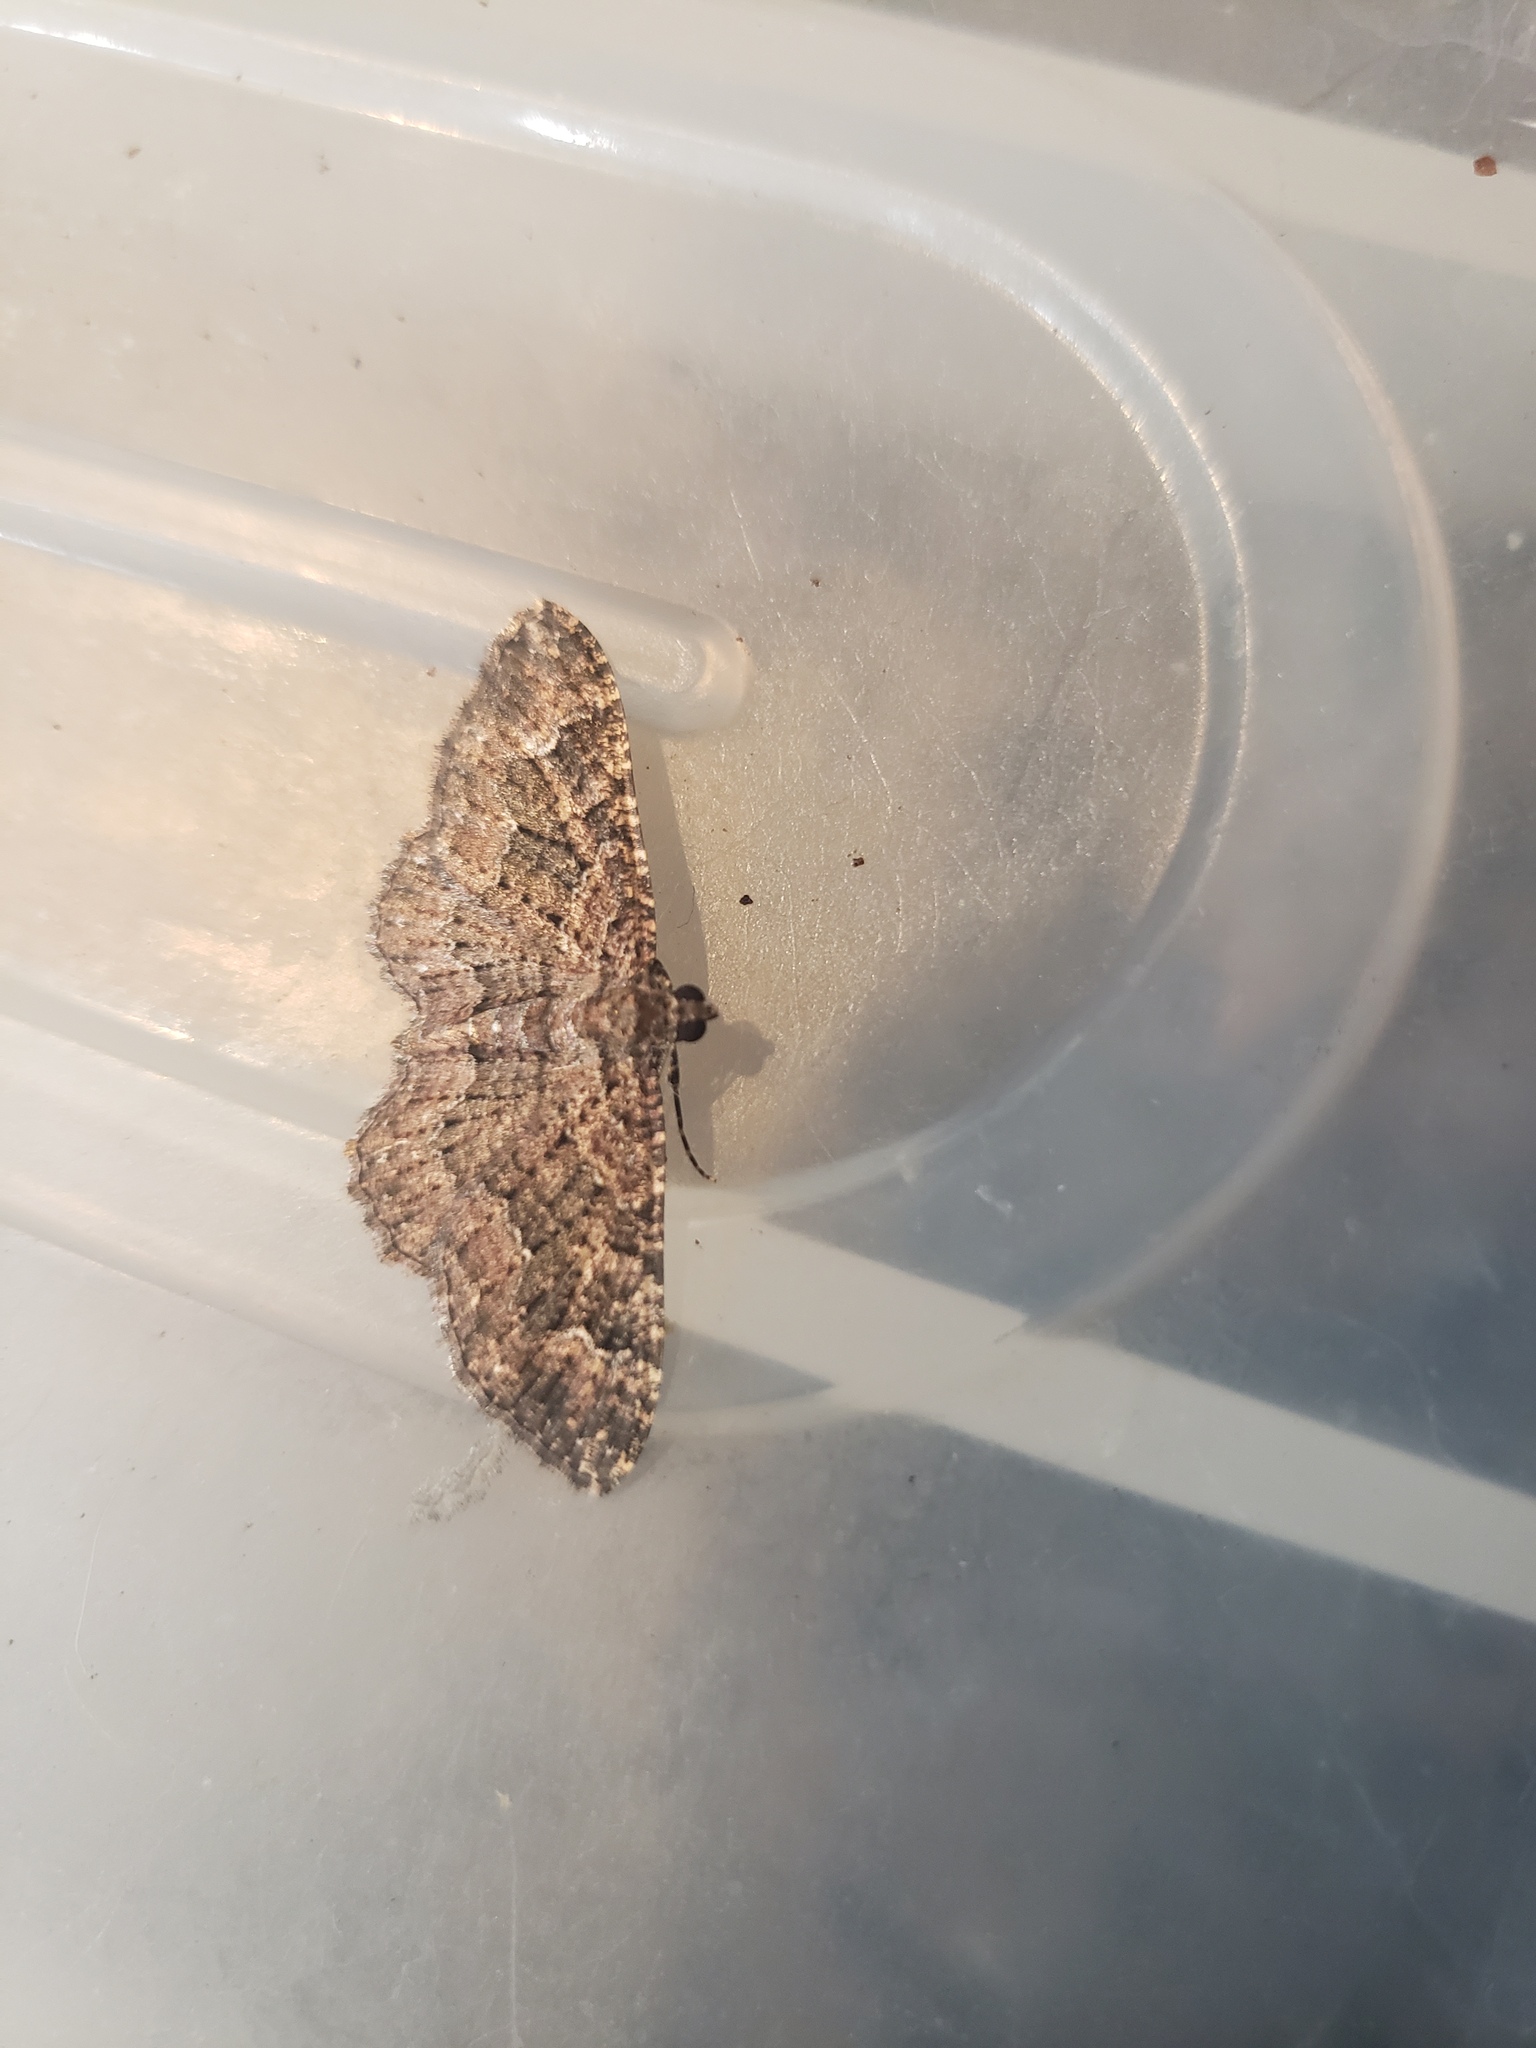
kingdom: Animalia
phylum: Arthropoda
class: Insecta
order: Lepidoptera
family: Geometridae
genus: Disclisioprocta
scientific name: Disclisioprocta stellata
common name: Somber carpet
